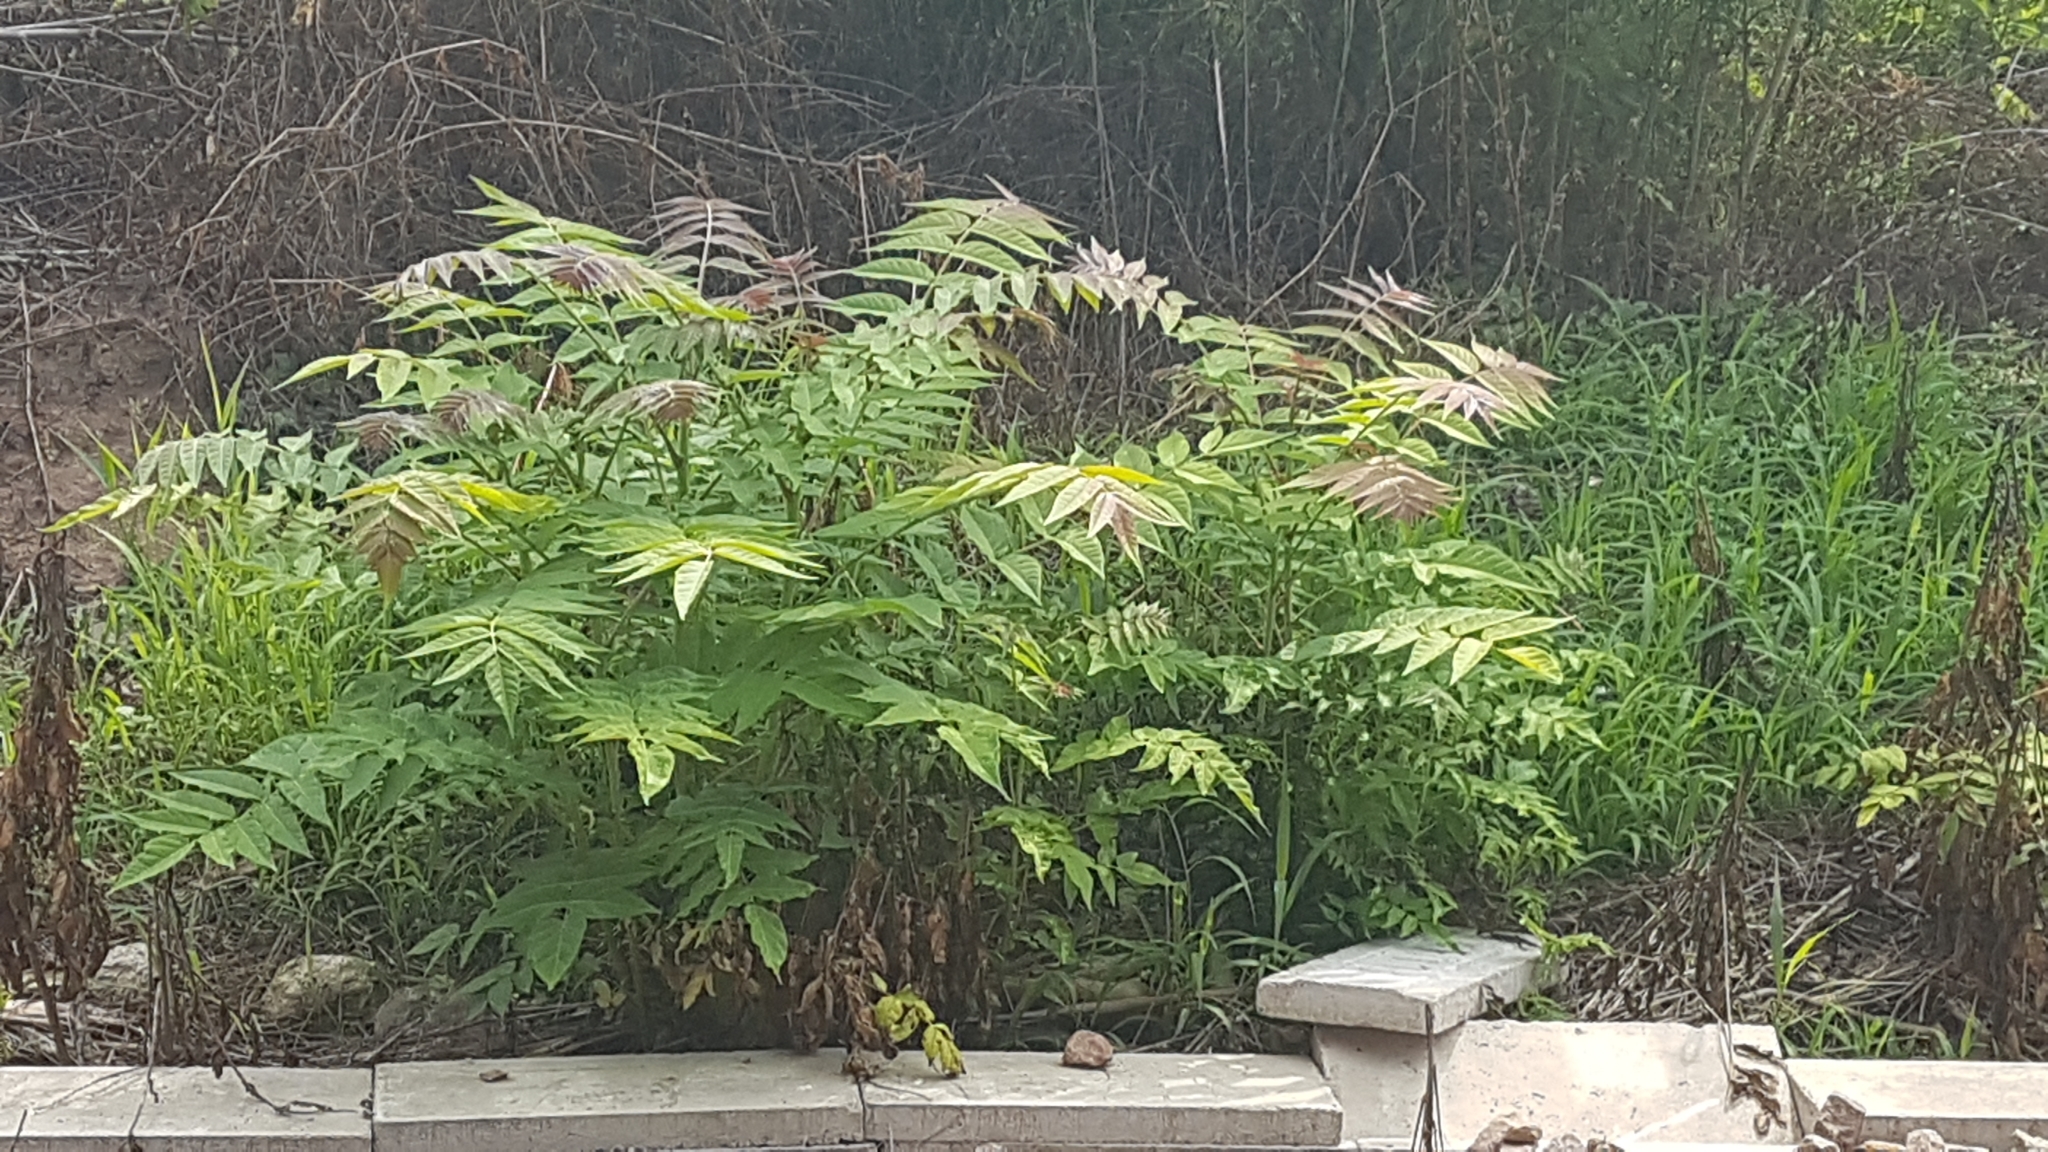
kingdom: Plantae
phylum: Tracheophyta
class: Magnoliopsida
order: Sapindales
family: Simaroubaceae
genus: Ailanthus
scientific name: Ailanthus altissima
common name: Tree-of-heaven
